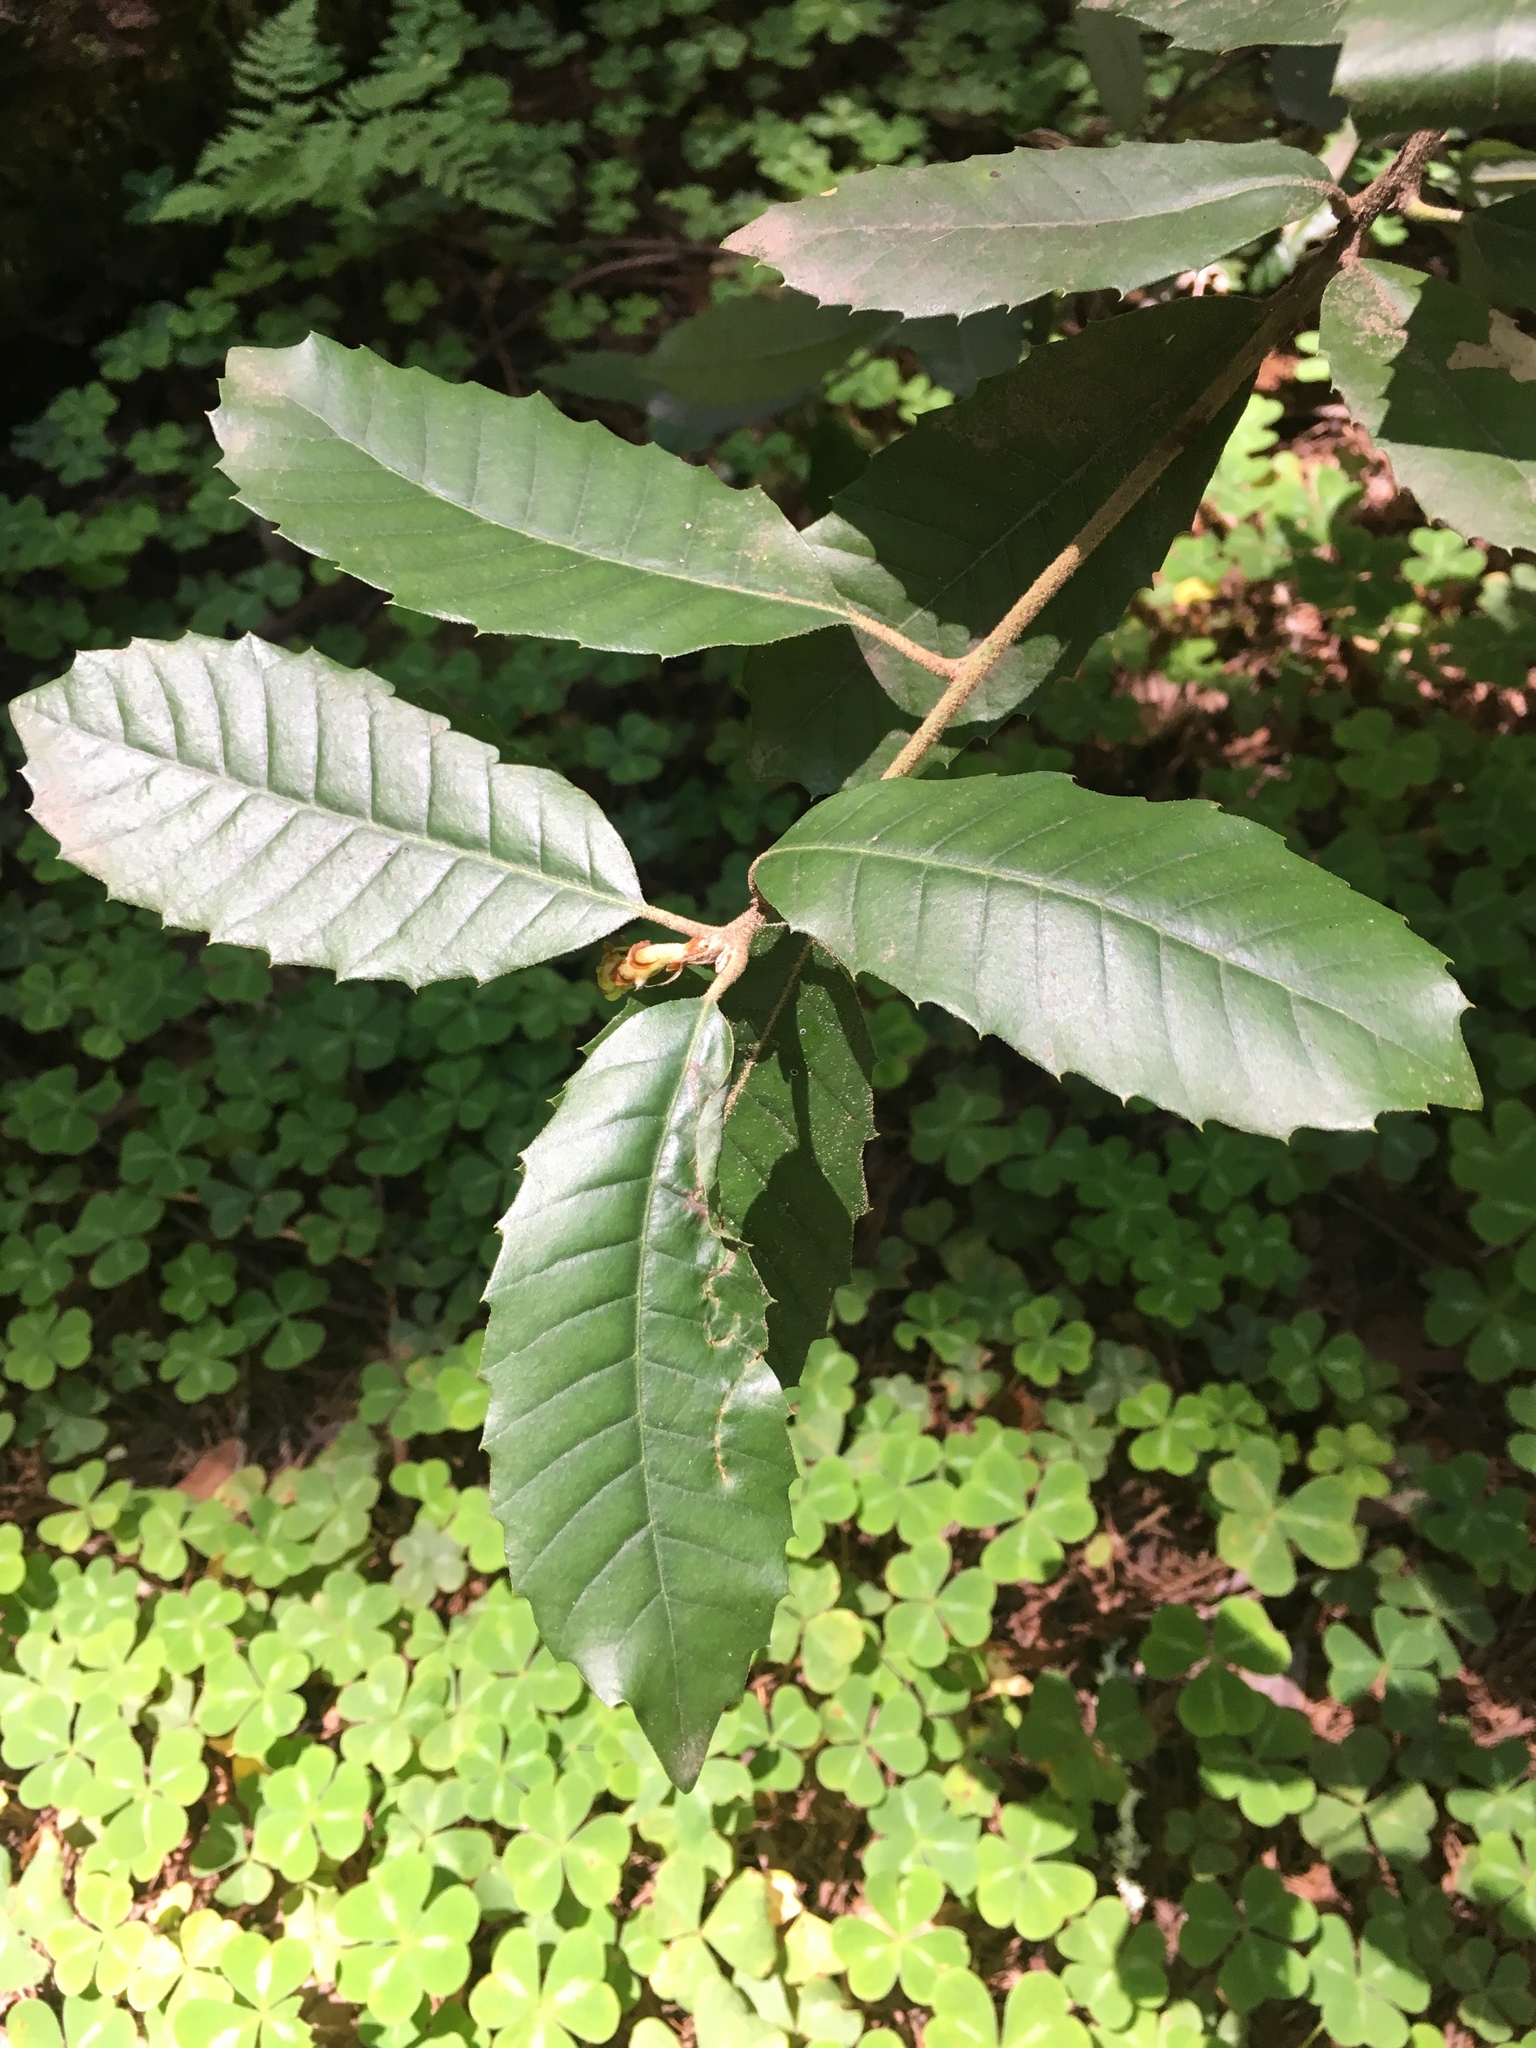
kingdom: Plantae
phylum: Tracheophyta
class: Magnoliopsida
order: Fagales
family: Fagaceae
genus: Notholithocarpus
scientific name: Notholithocarpus densiflorus
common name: Tan bark oak
